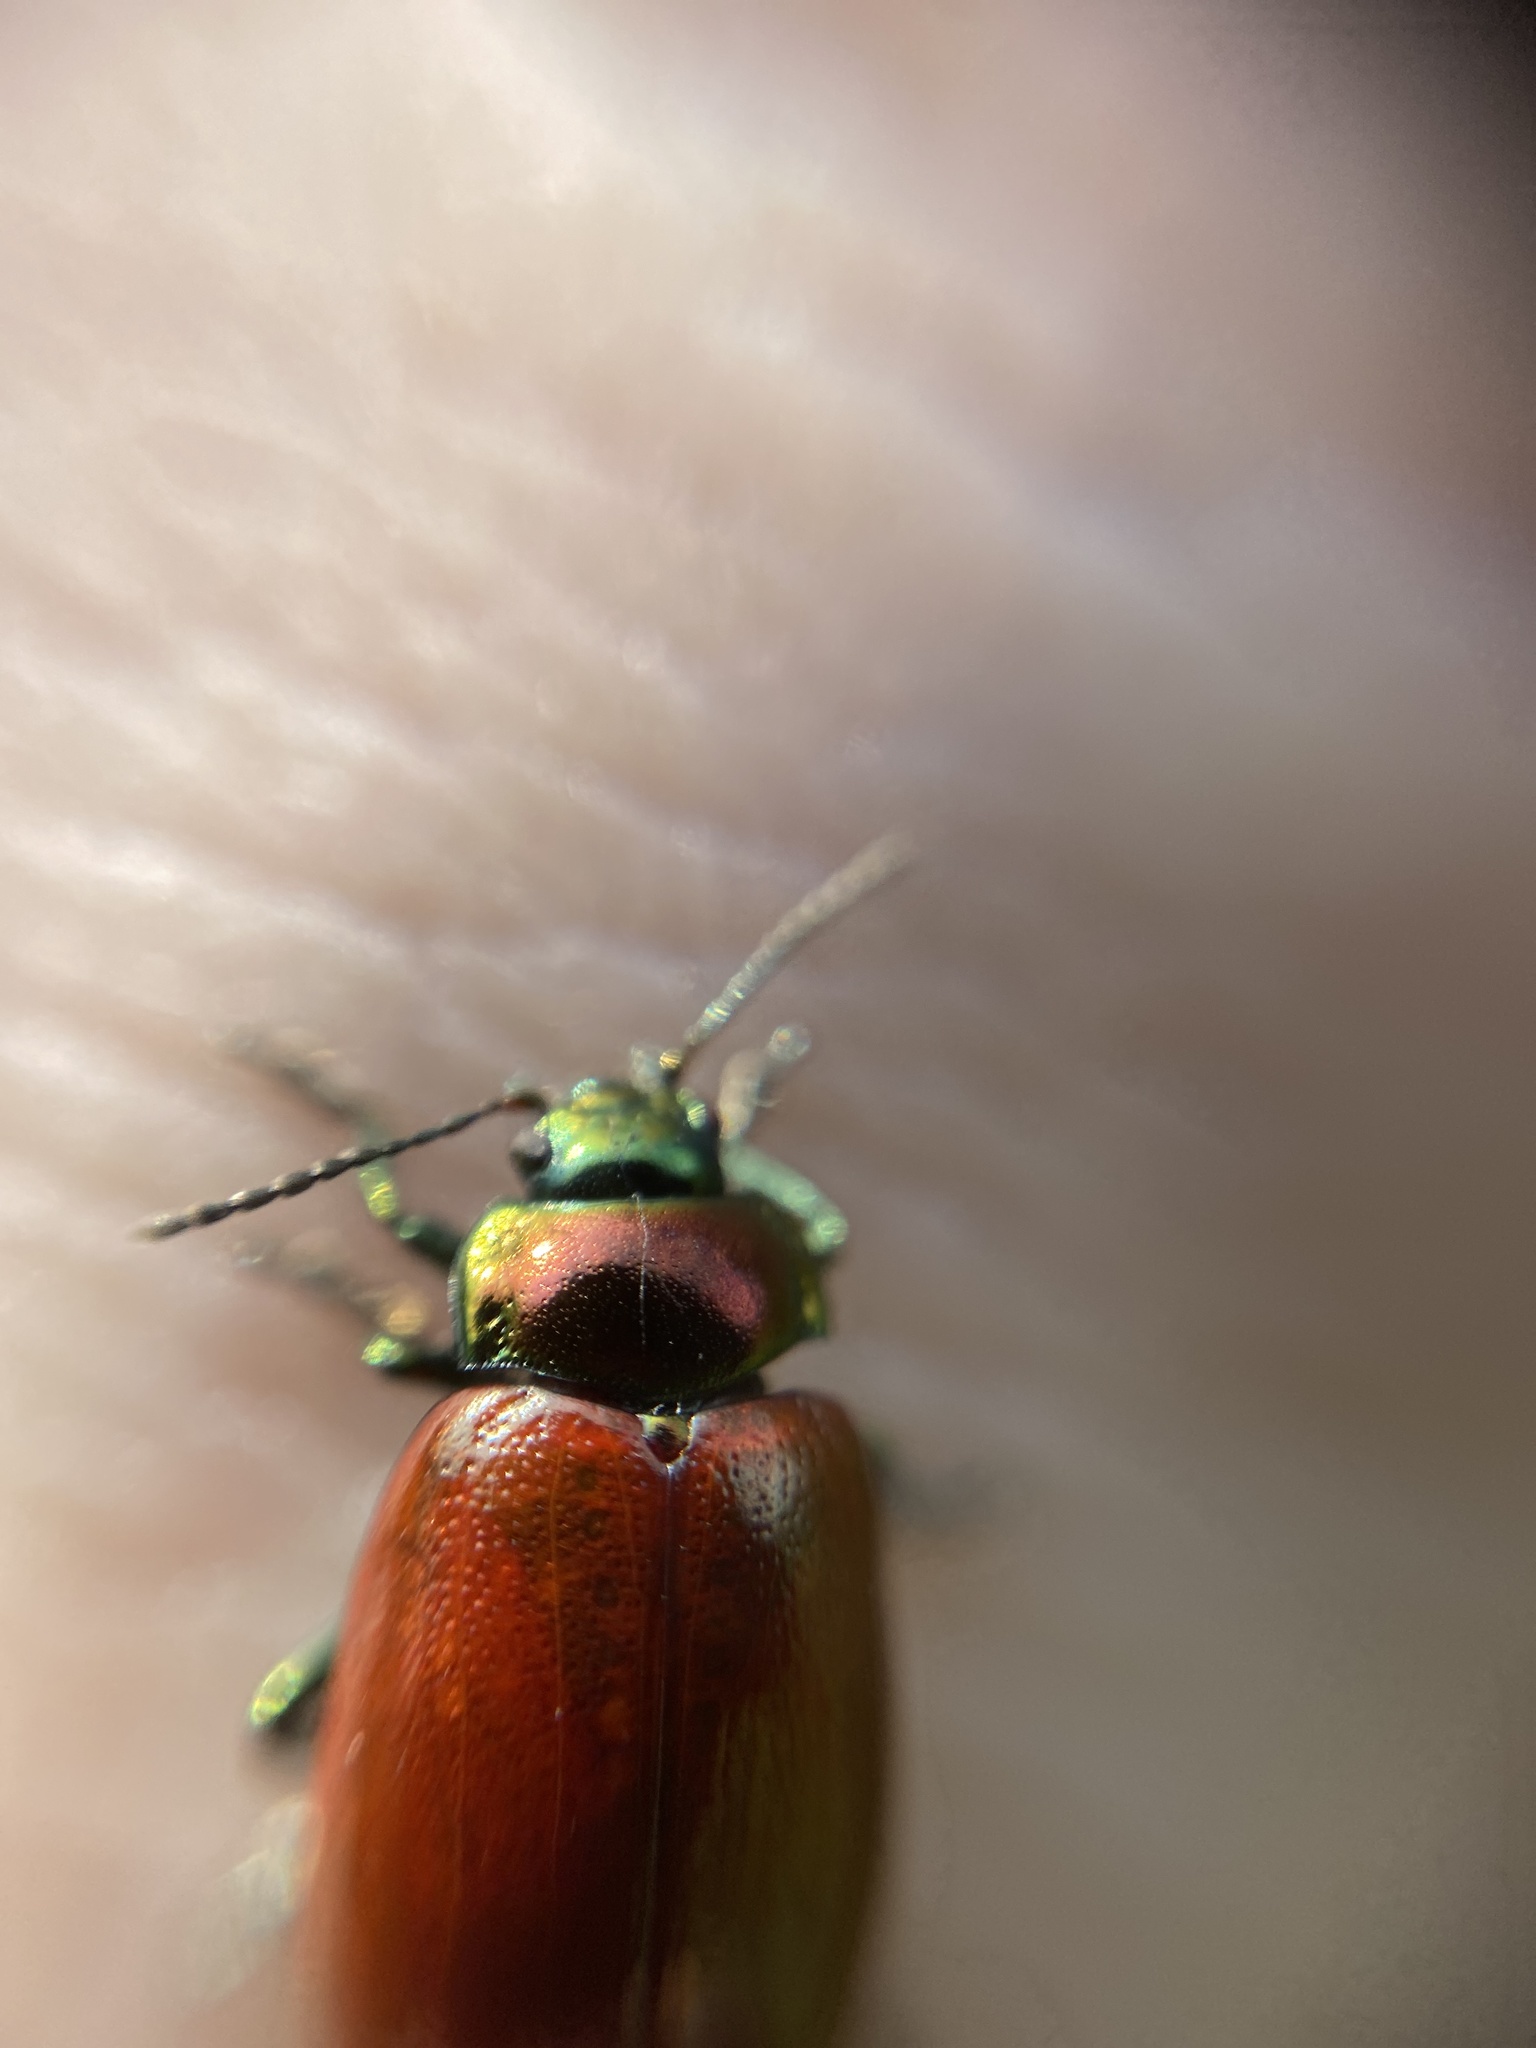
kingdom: Animalia
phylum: Arthropoda
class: Insecta
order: Coleoptera
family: Chrysomelidae
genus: Chrysomela
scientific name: Chrysomela polita
